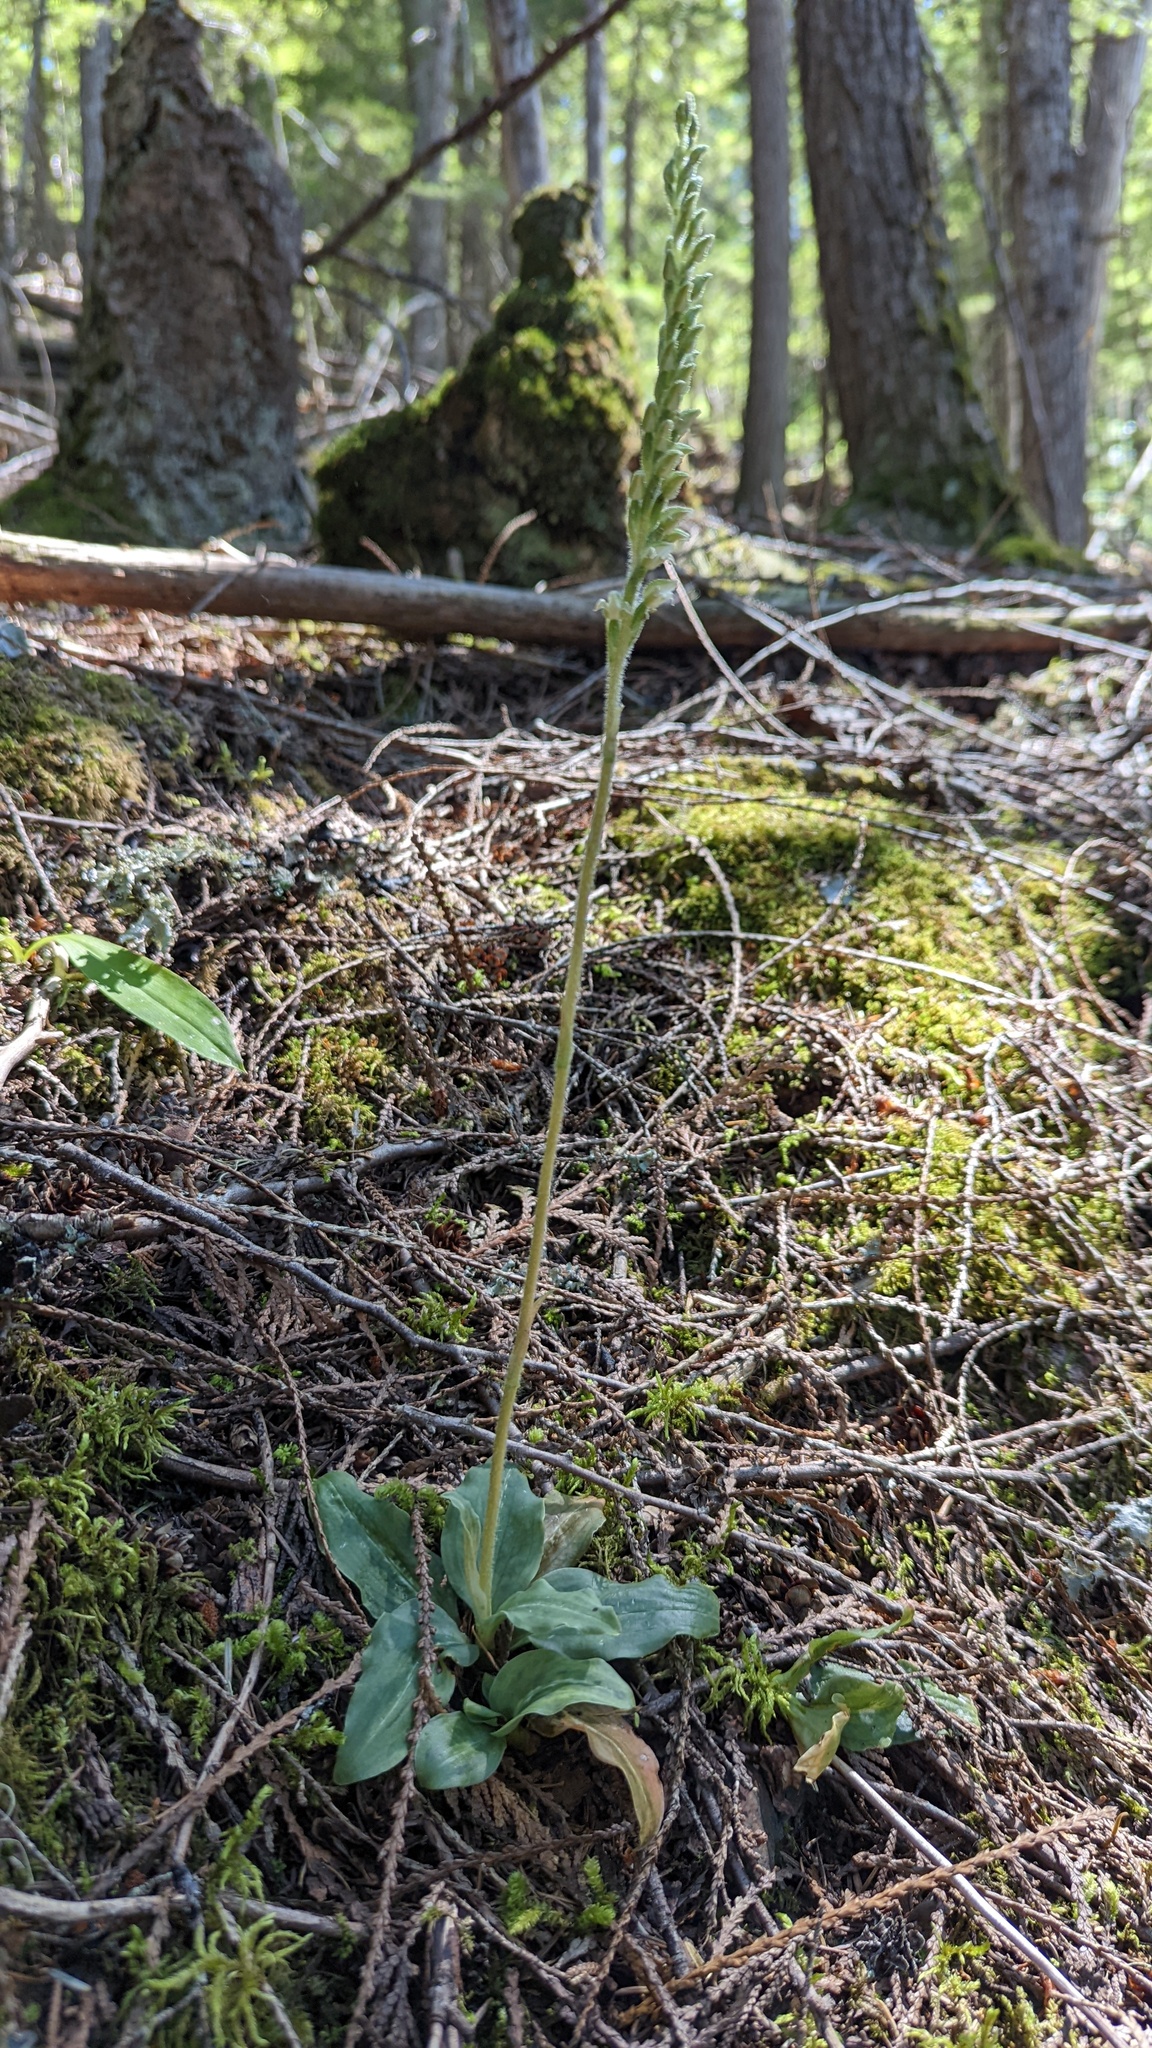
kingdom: Plantae
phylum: Tracheophyta
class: Liliopsida
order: Asparagales
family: Orchidaceae
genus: Goodyera
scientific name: Goodyera oblongifolia
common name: Giant rattlesnake-plantain
